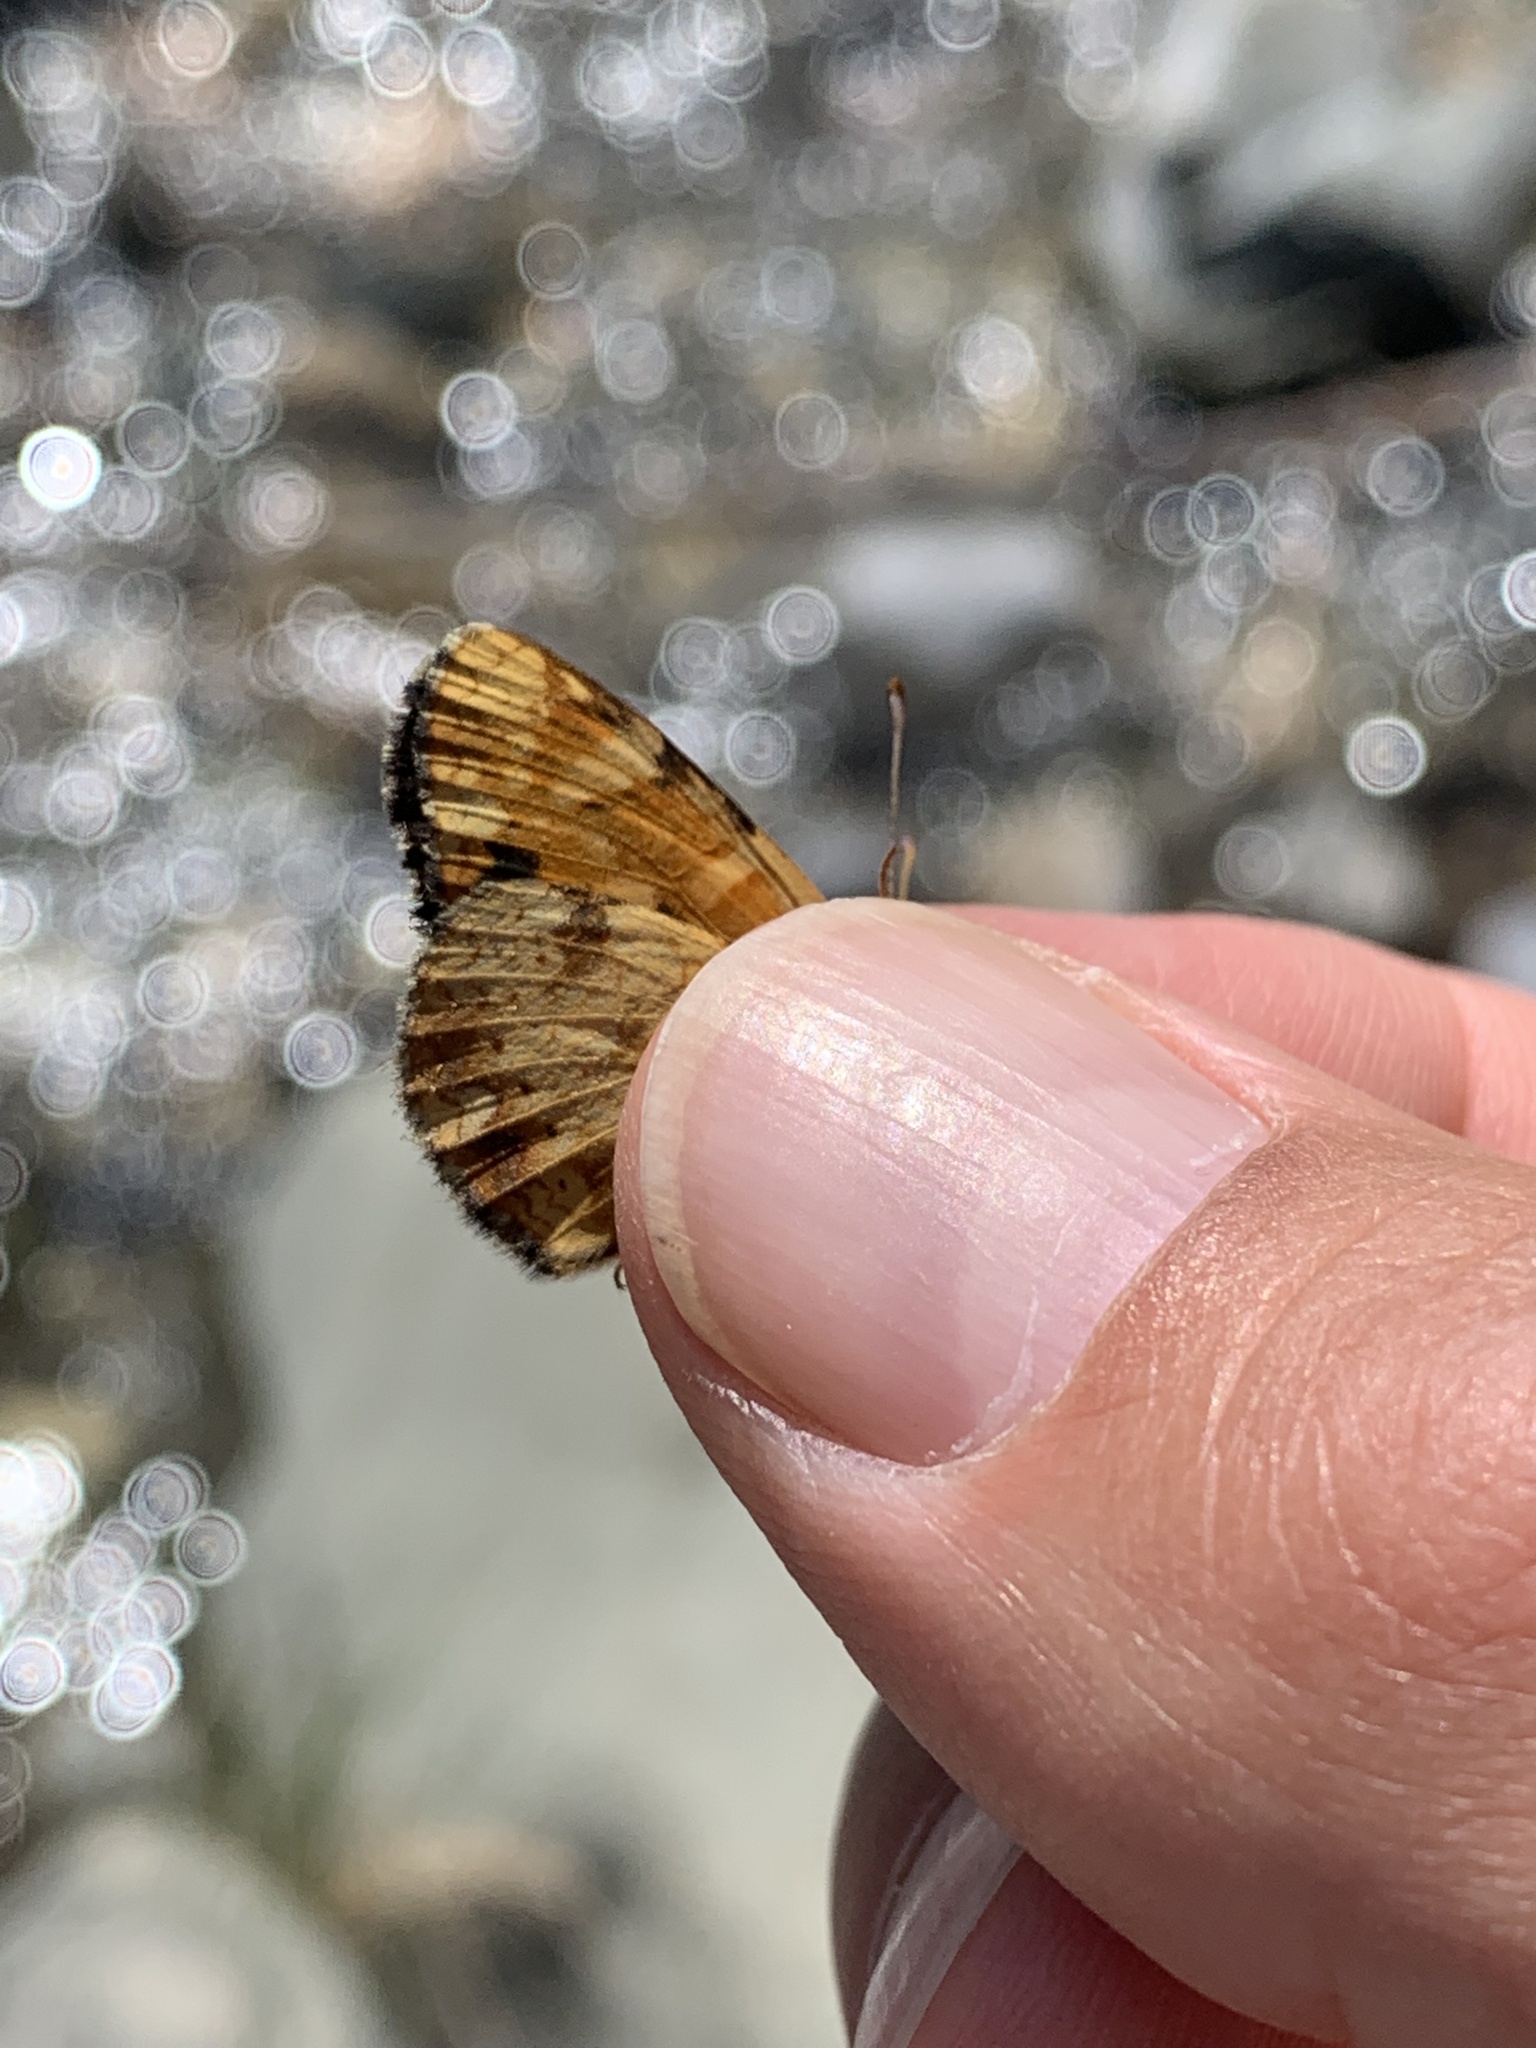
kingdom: Animalia
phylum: Arthropoda
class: Insecta
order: Lepidoptera
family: Nymphalidae
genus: Phyciodes
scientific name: Phyciodes tharos
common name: Pearl crescent
